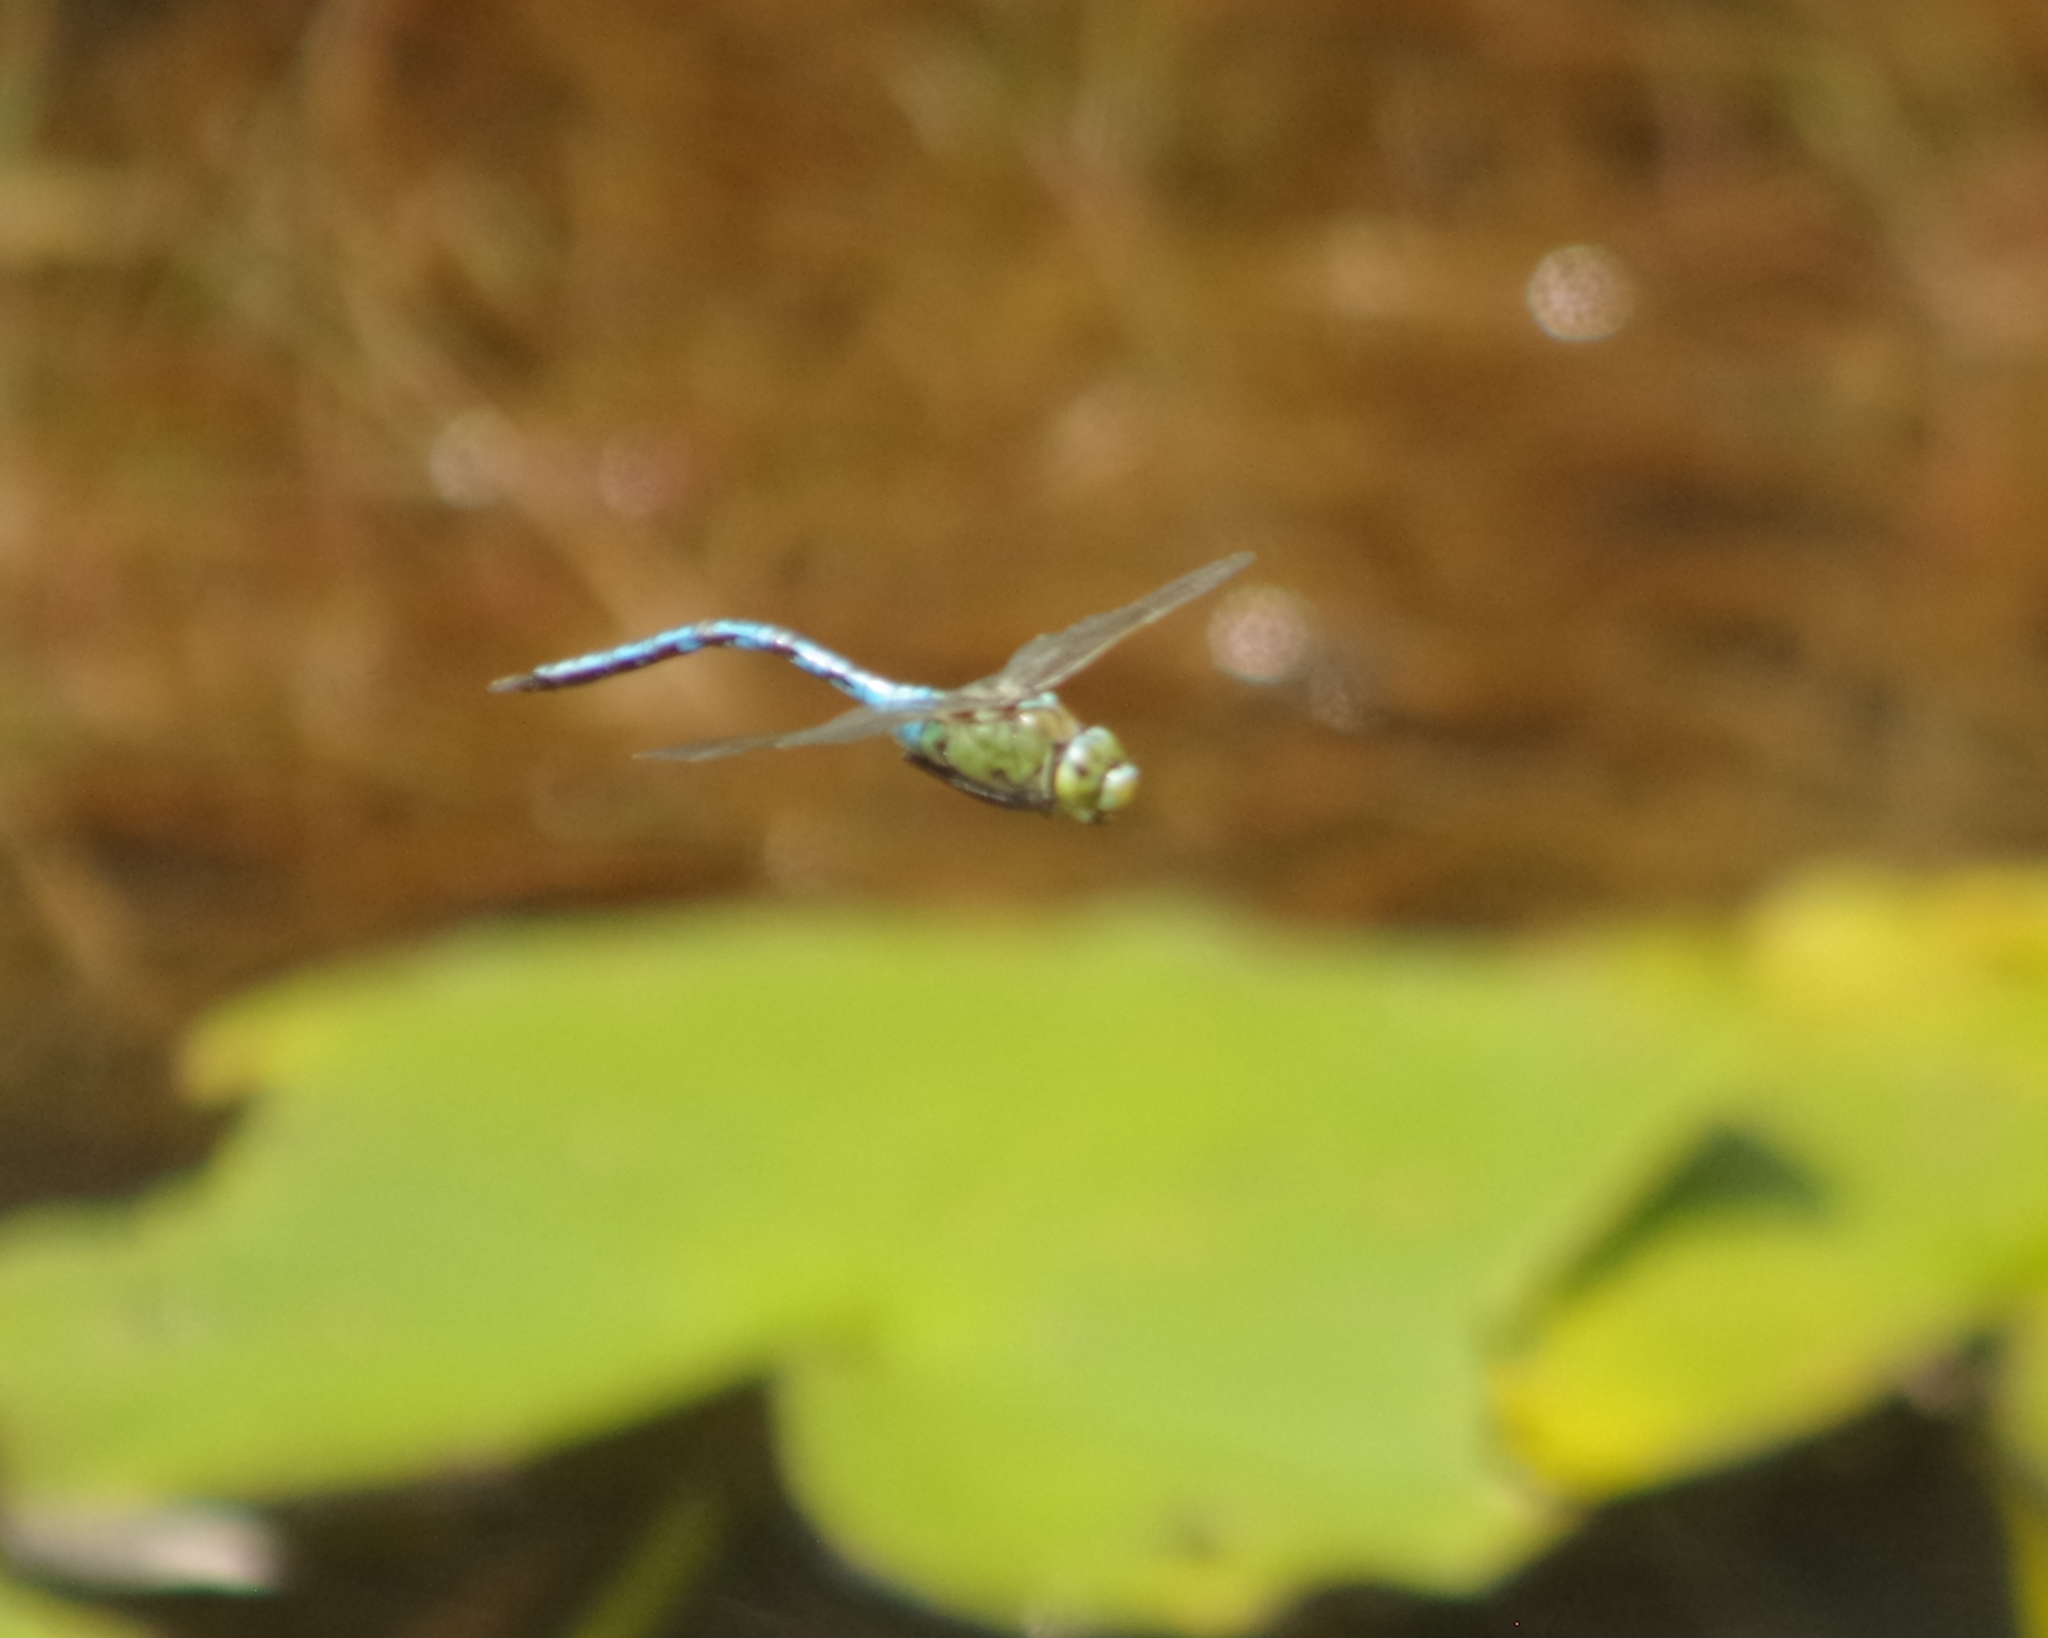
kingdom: Animalia
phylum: Arthropoda
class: Insecta
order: Odonata
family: Aeshnidae
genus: Anax
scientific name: Anax imperator
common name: Emperor dragonfly
